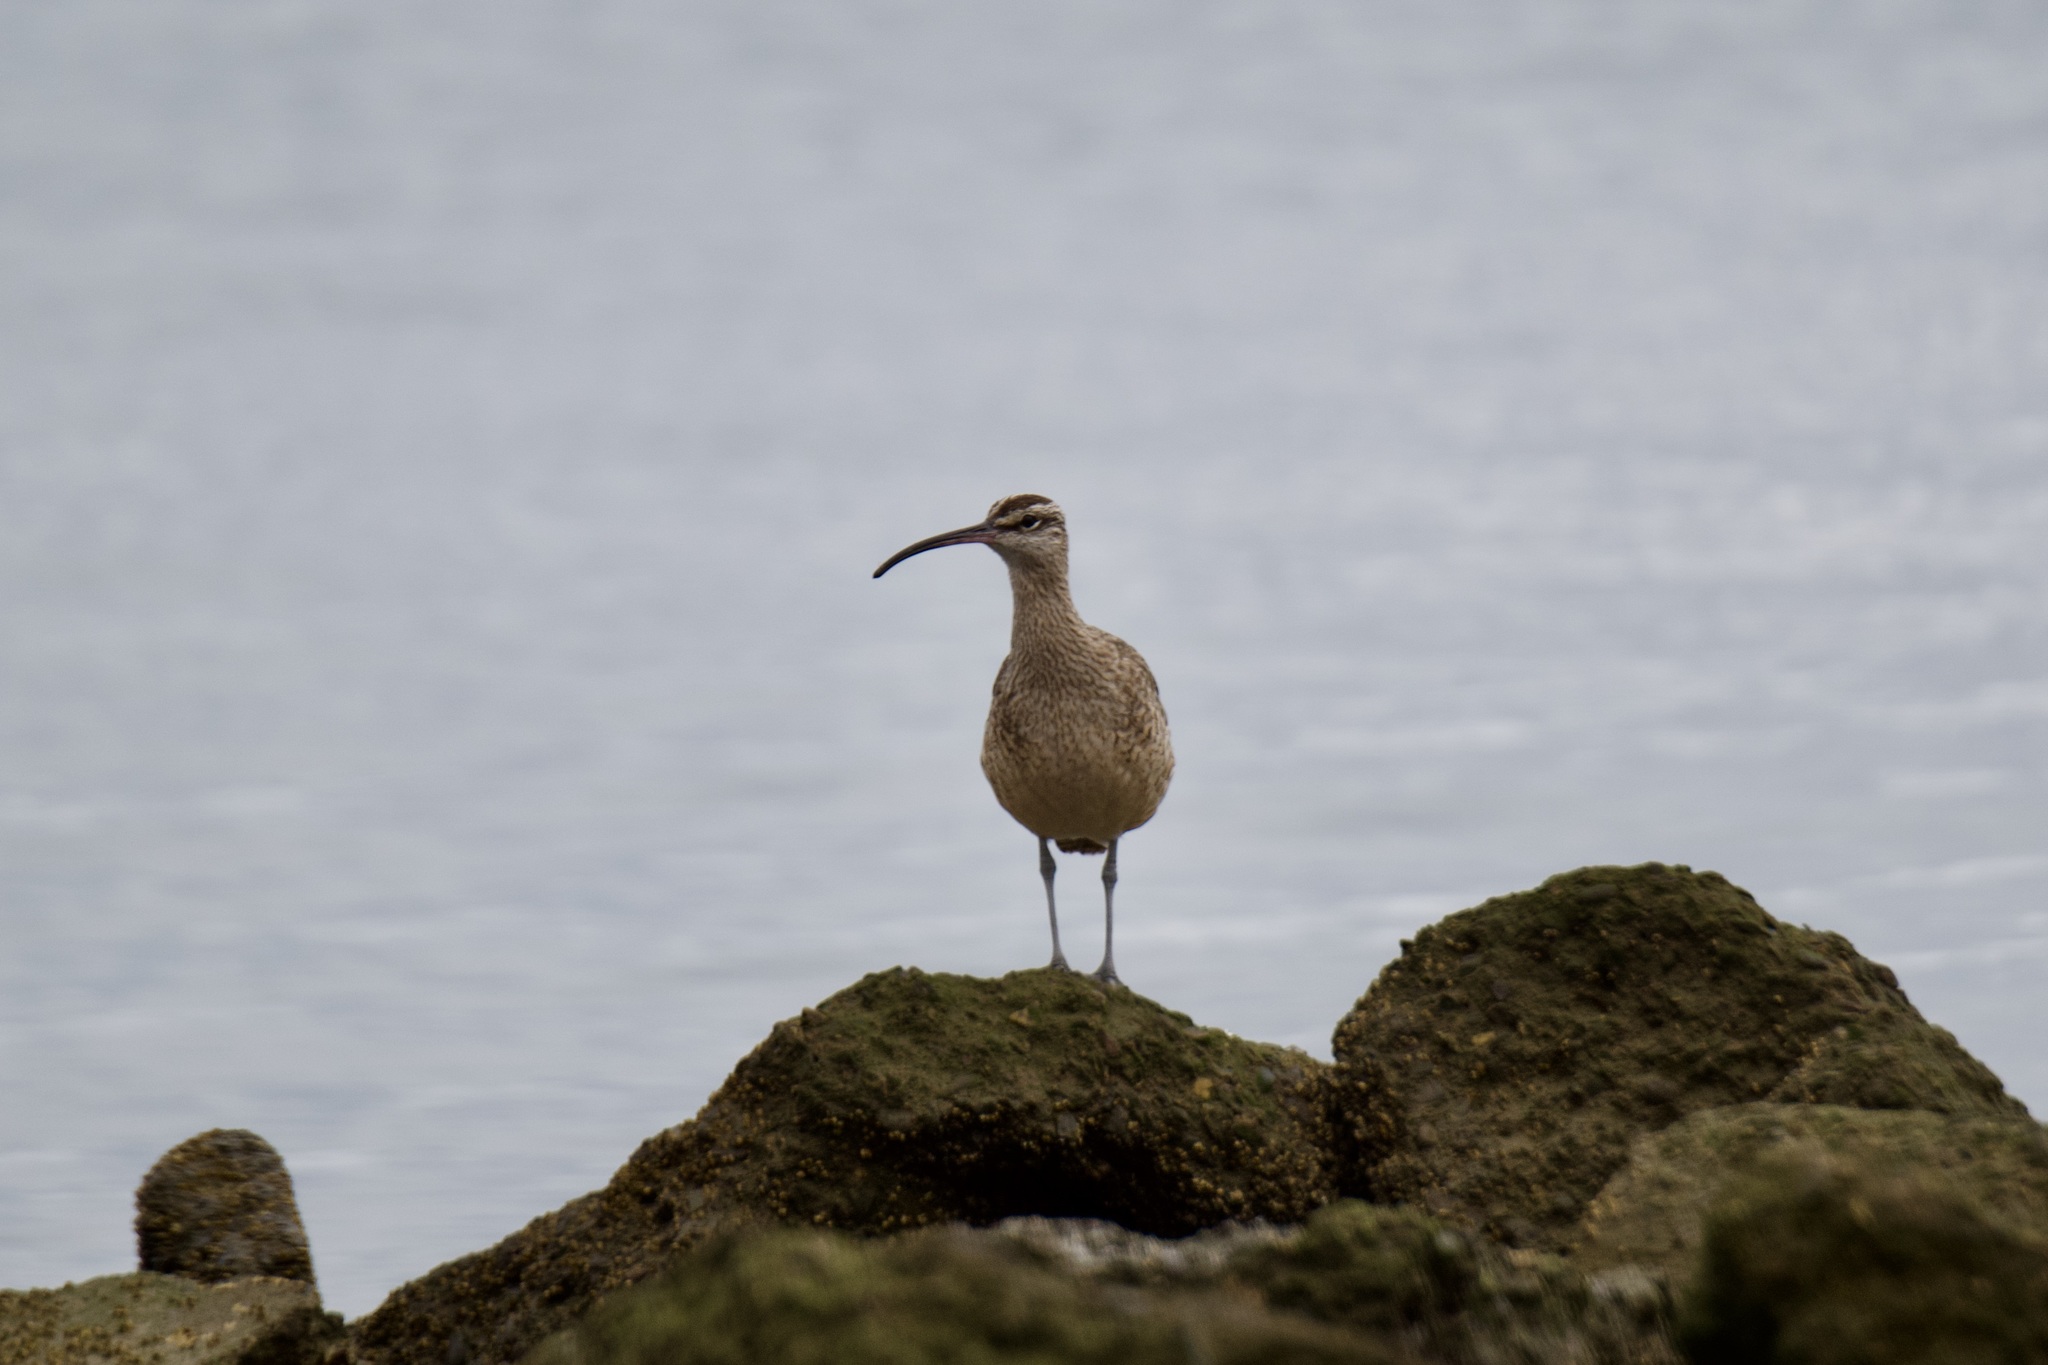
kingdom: Animalia
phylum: Chordata
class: Aves
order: Charadriiformes
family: Scolopacidae
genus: Numenius
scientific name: Numenius phaeopus
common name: Whimbrel
